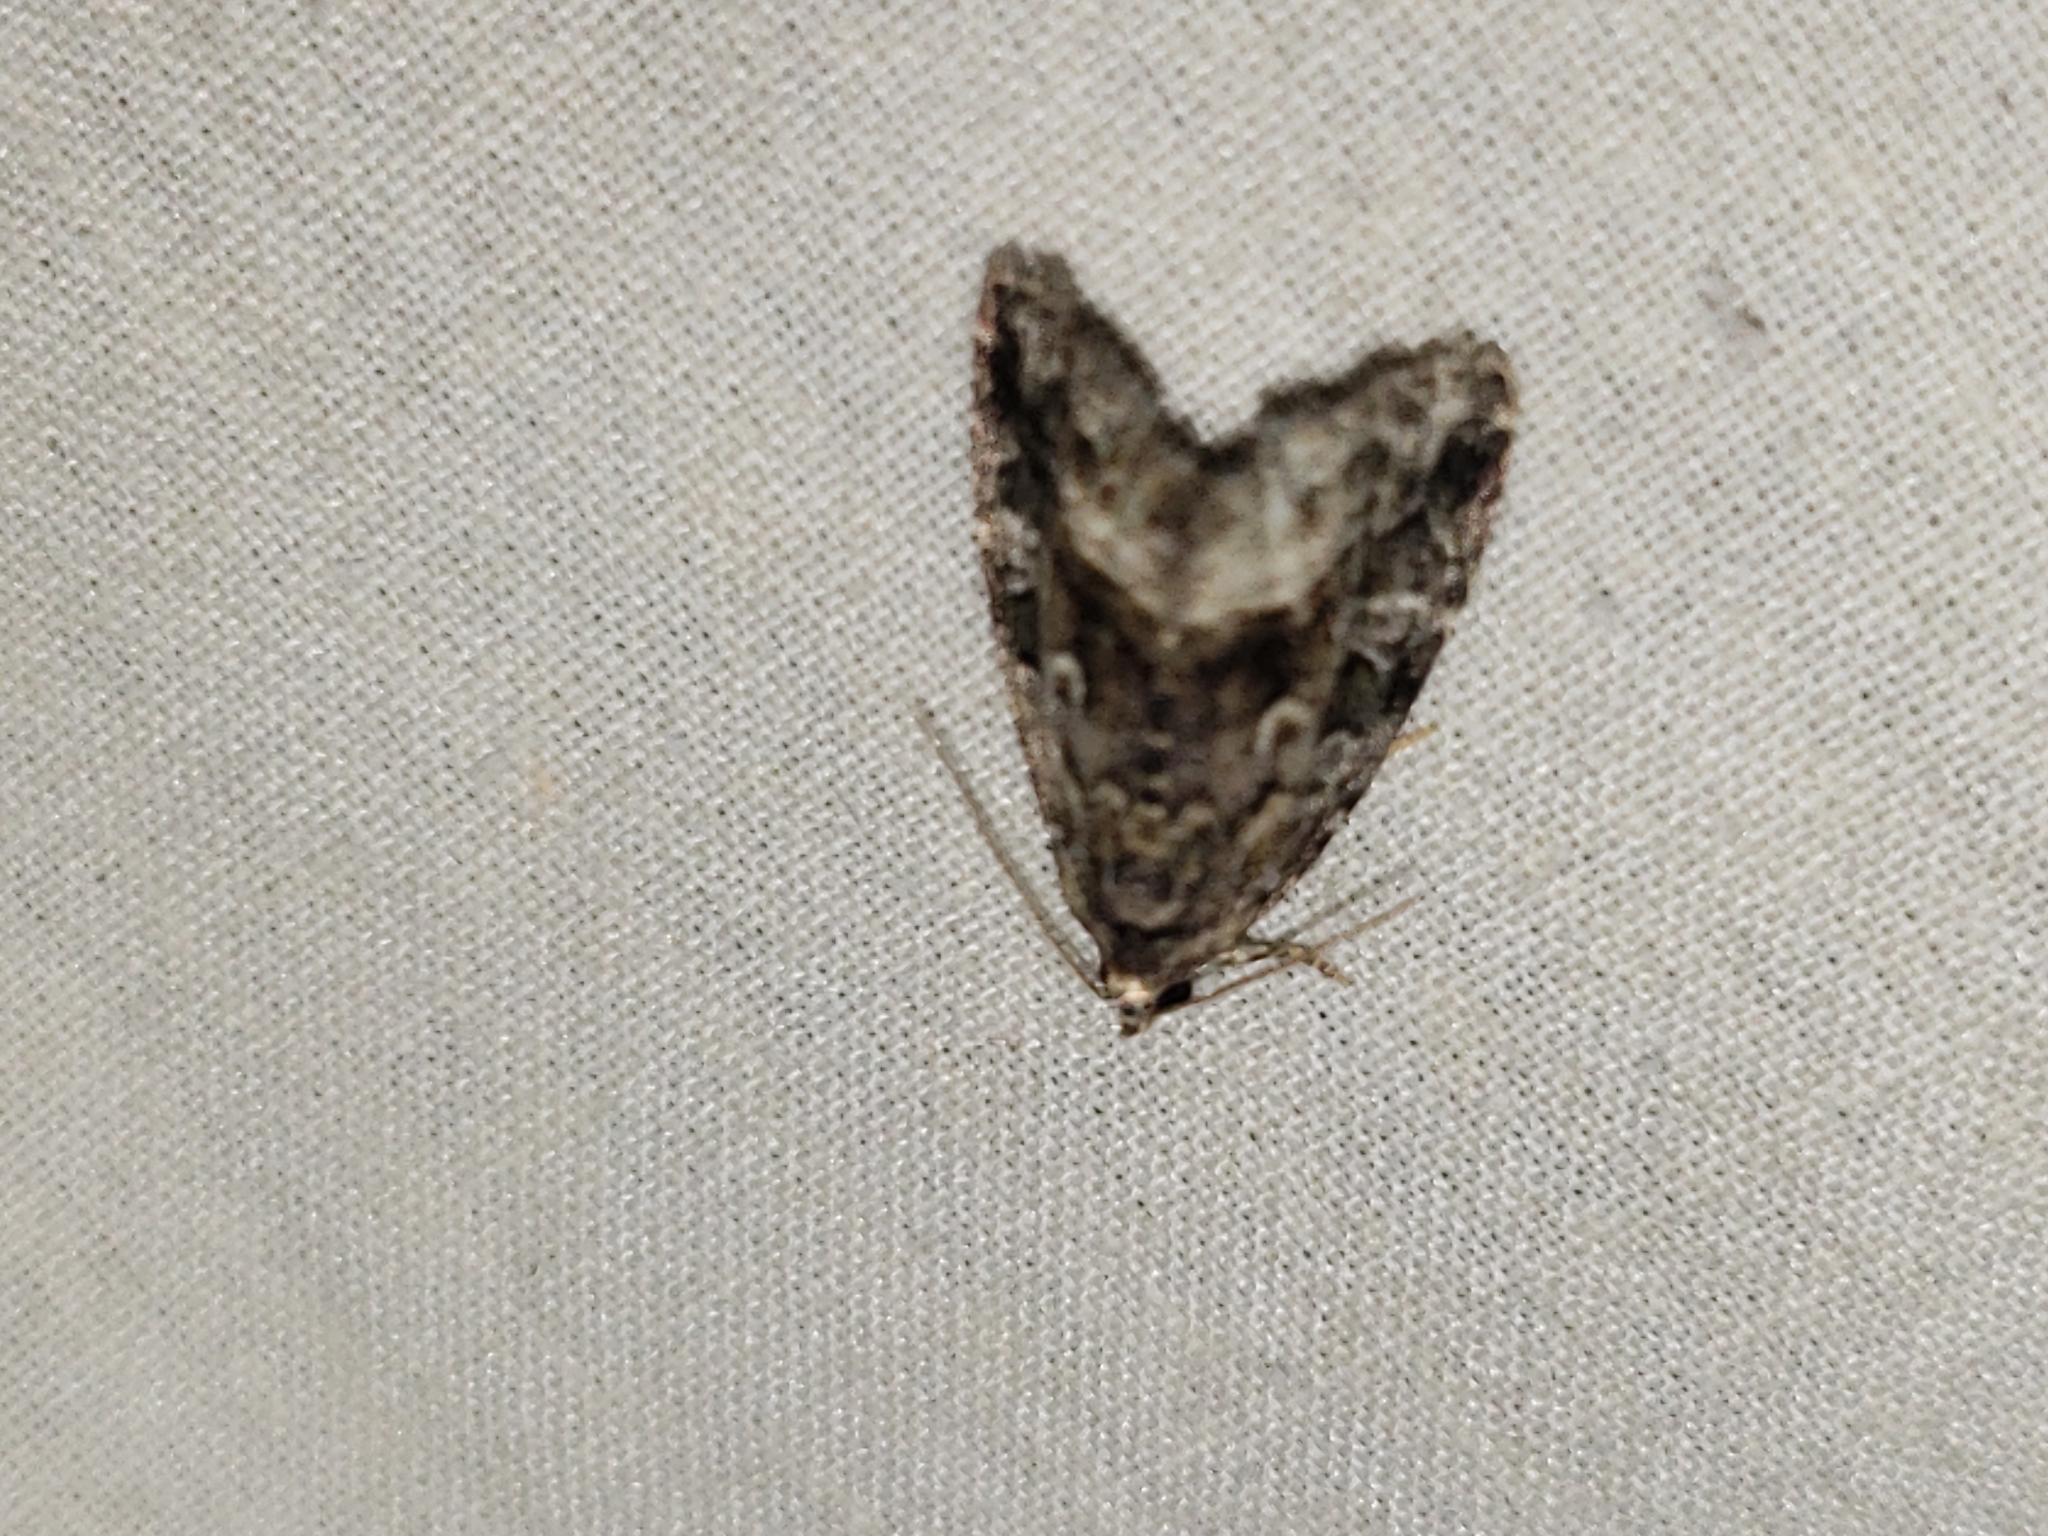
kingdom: Animalia
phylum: Arthropoda
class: Insecta
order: Lepidoptera
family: Noctuidae
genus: Protodeltote
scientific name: Protodeltote muscosula
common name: Large mossy glyph
